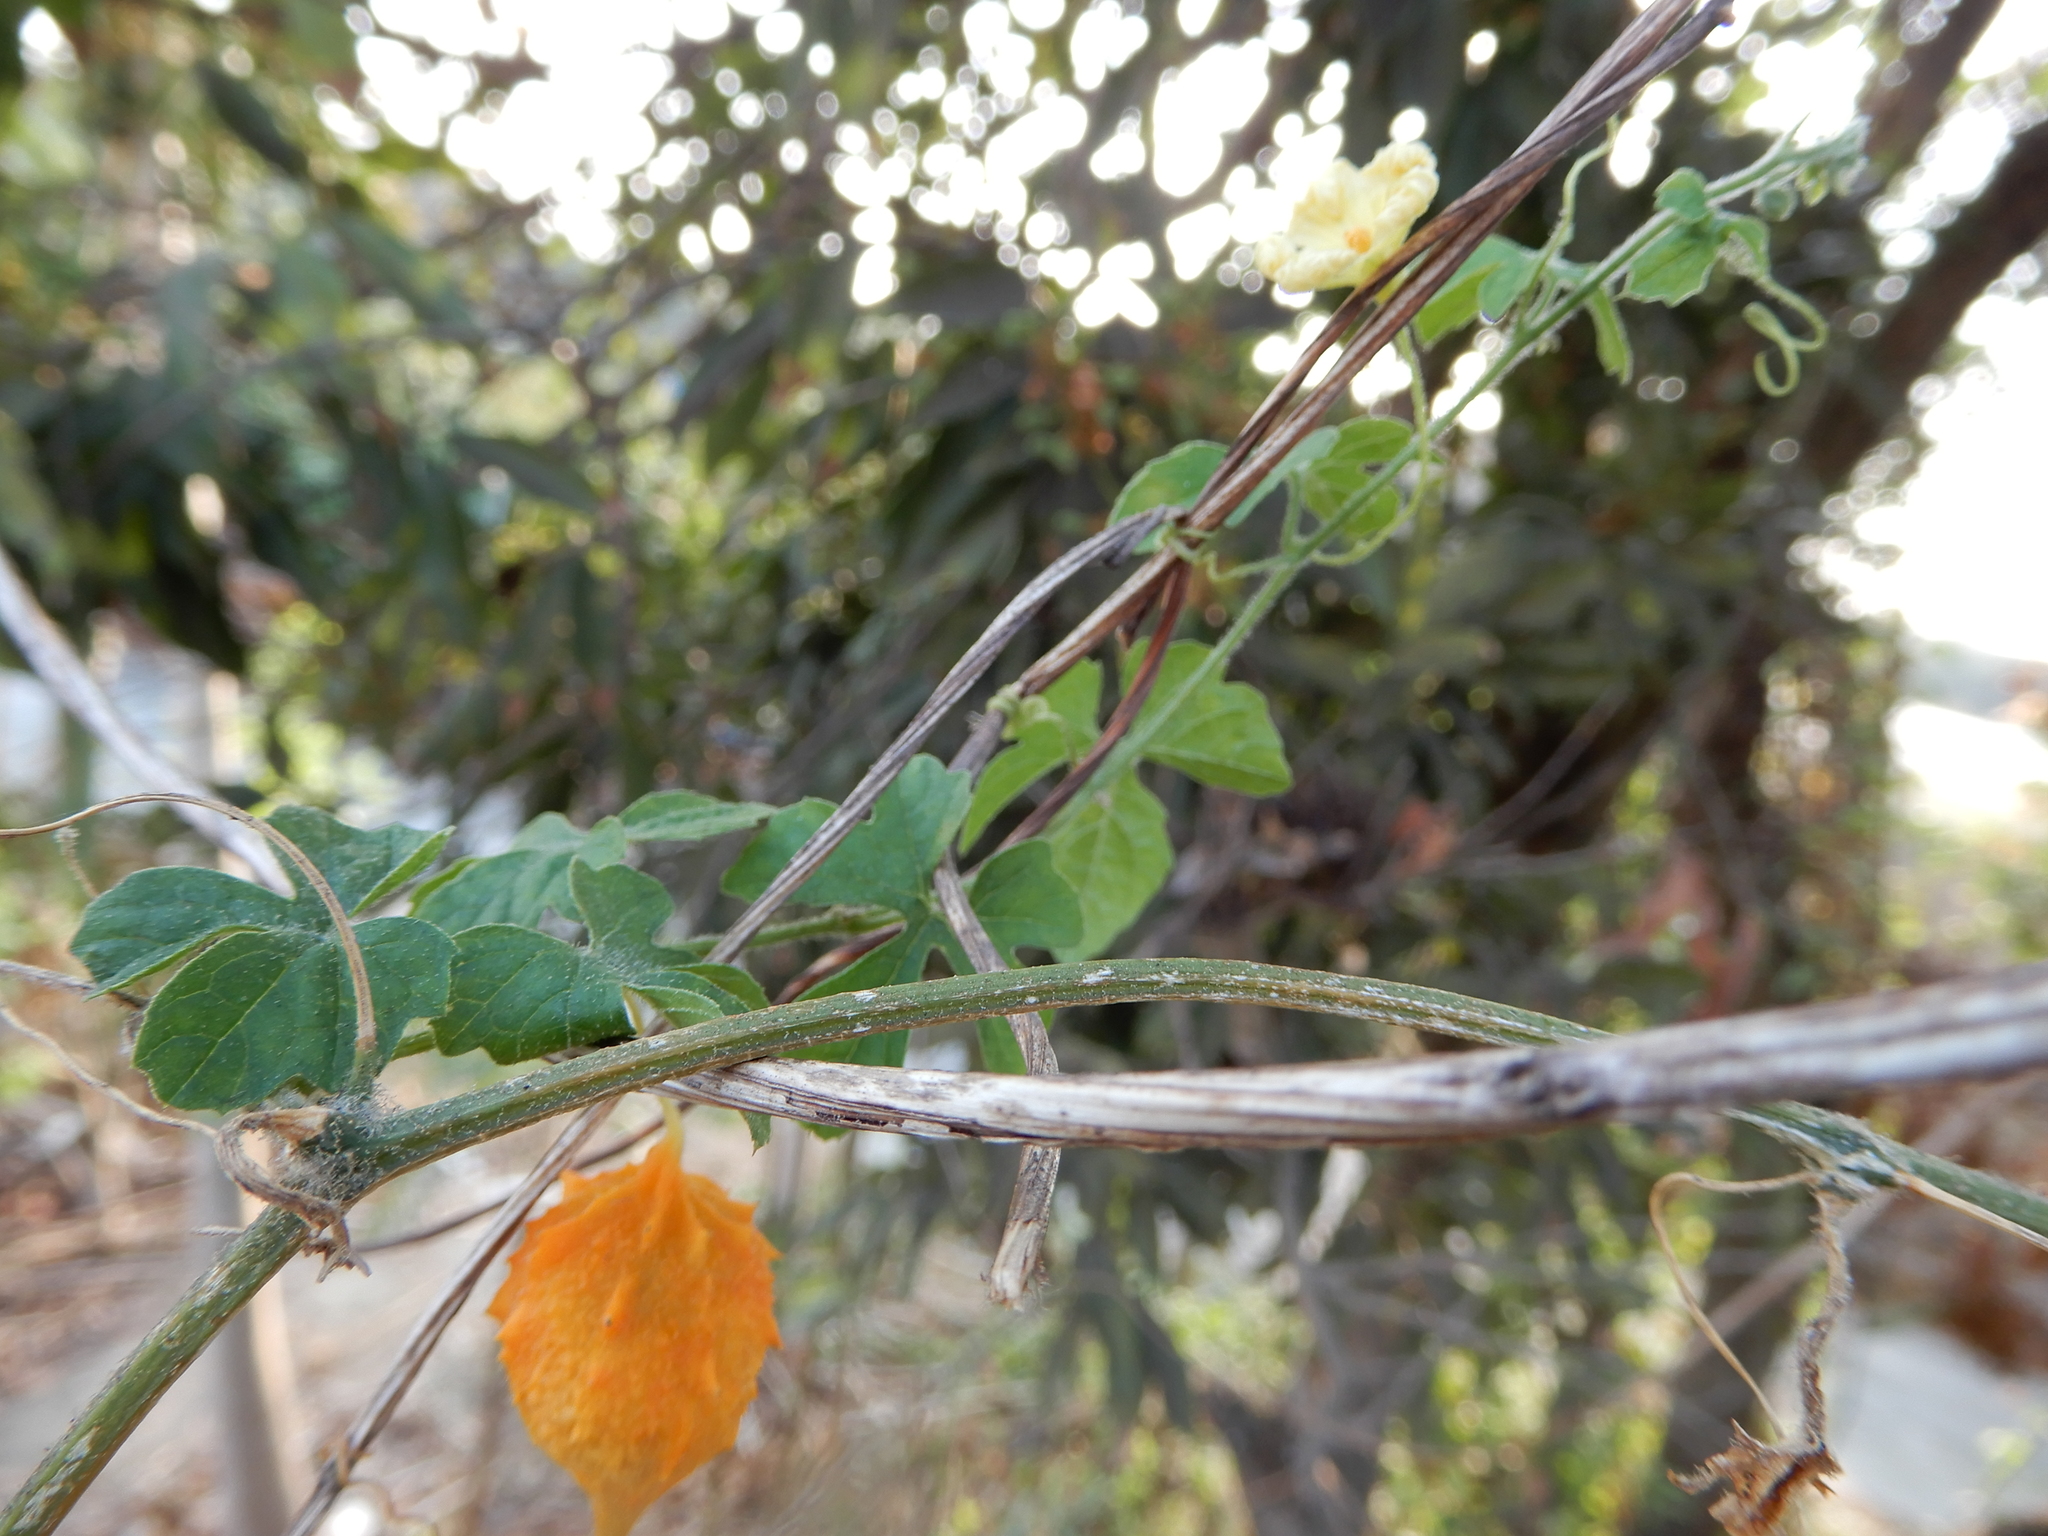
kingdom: Plantae
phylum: Tracheophyta
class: Magnoliopsida
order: Cucurbitales
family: Cucurbitaceae
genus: Momordica
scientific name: Momordica charantia
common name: Balsampear
